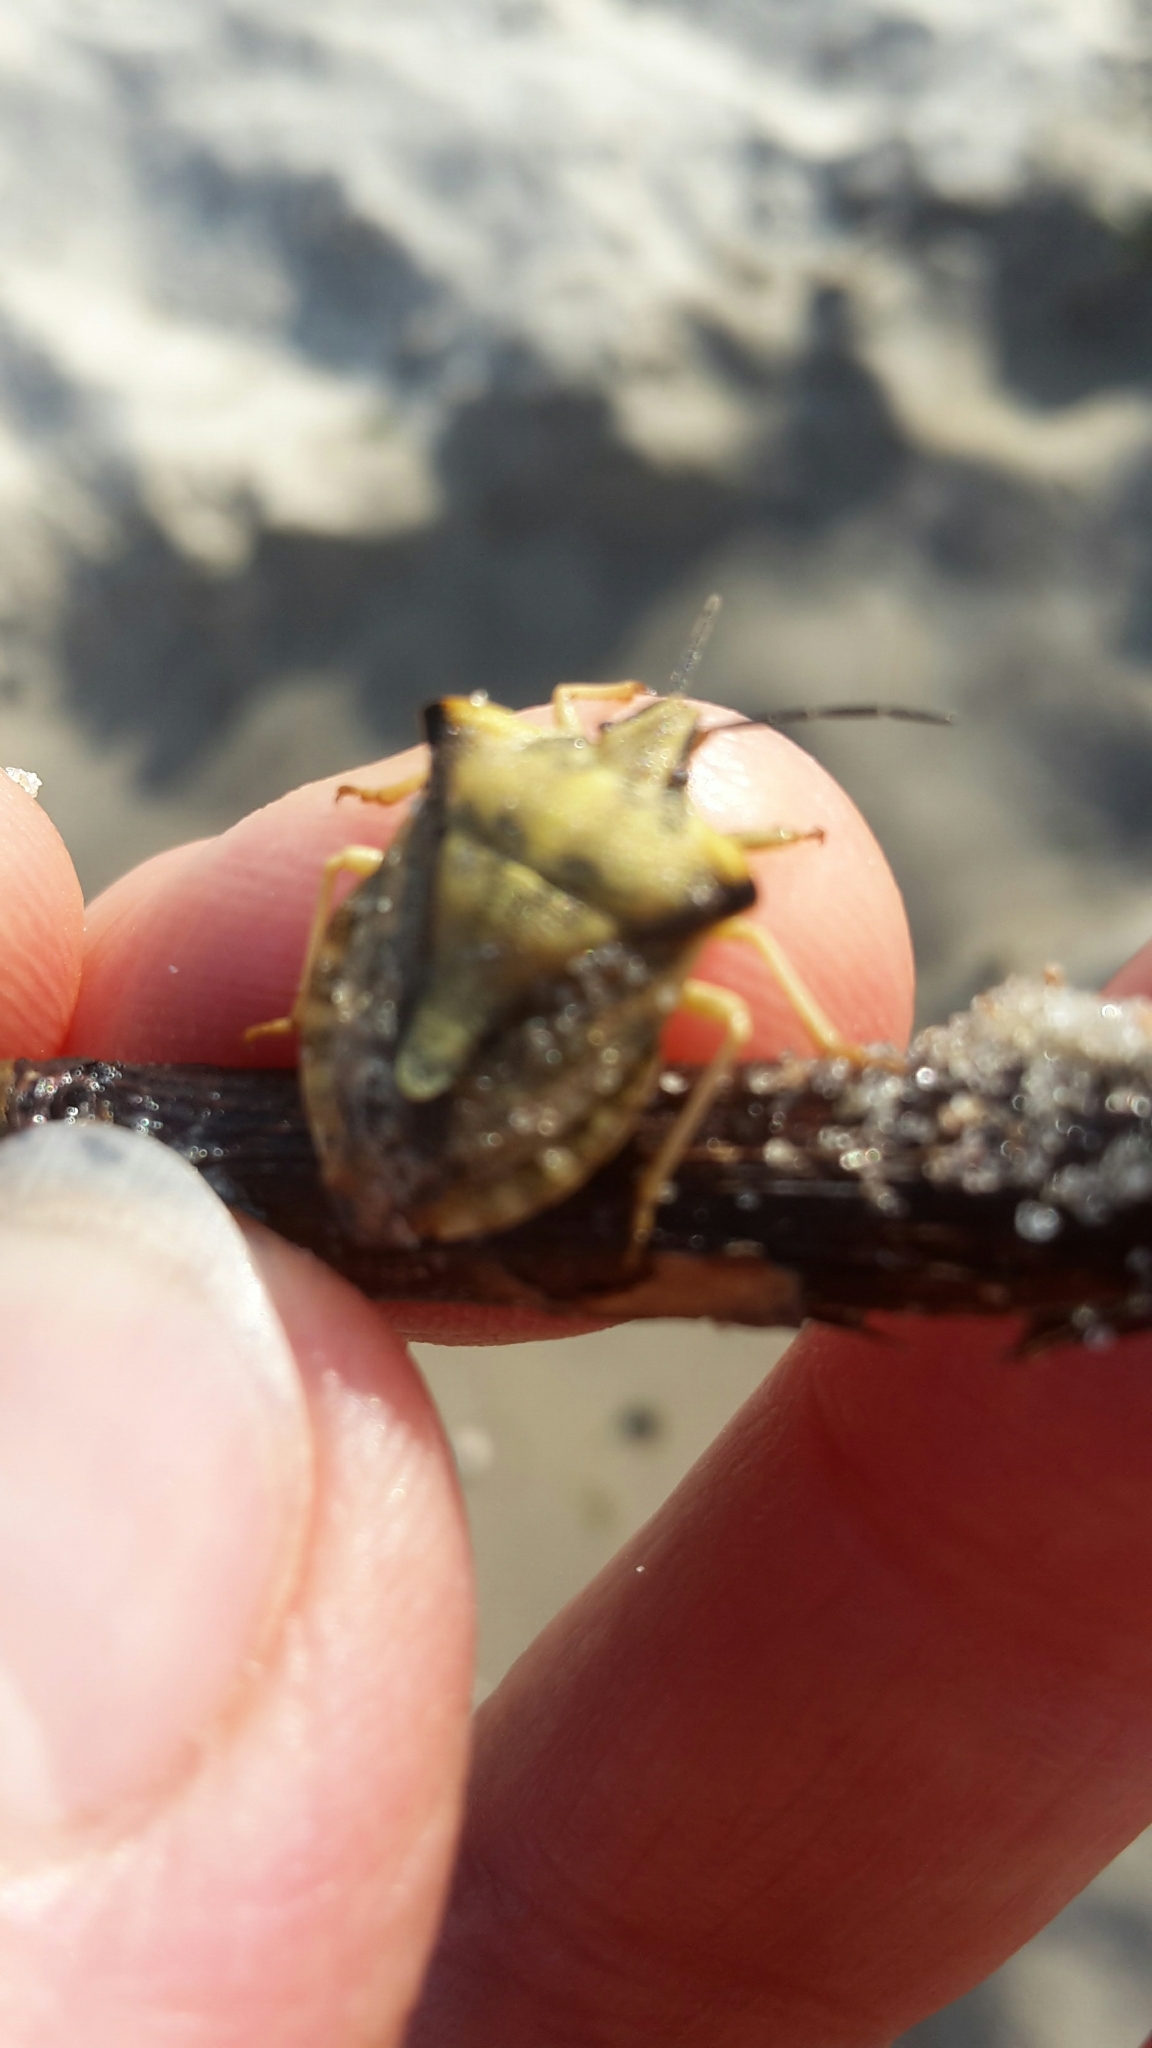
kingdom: Animalia
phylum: Arthropoda
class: Insecta
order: Hemiptera
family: Pentatomidae
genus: Carpocoris
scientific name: Carpocoris fuscispinus
